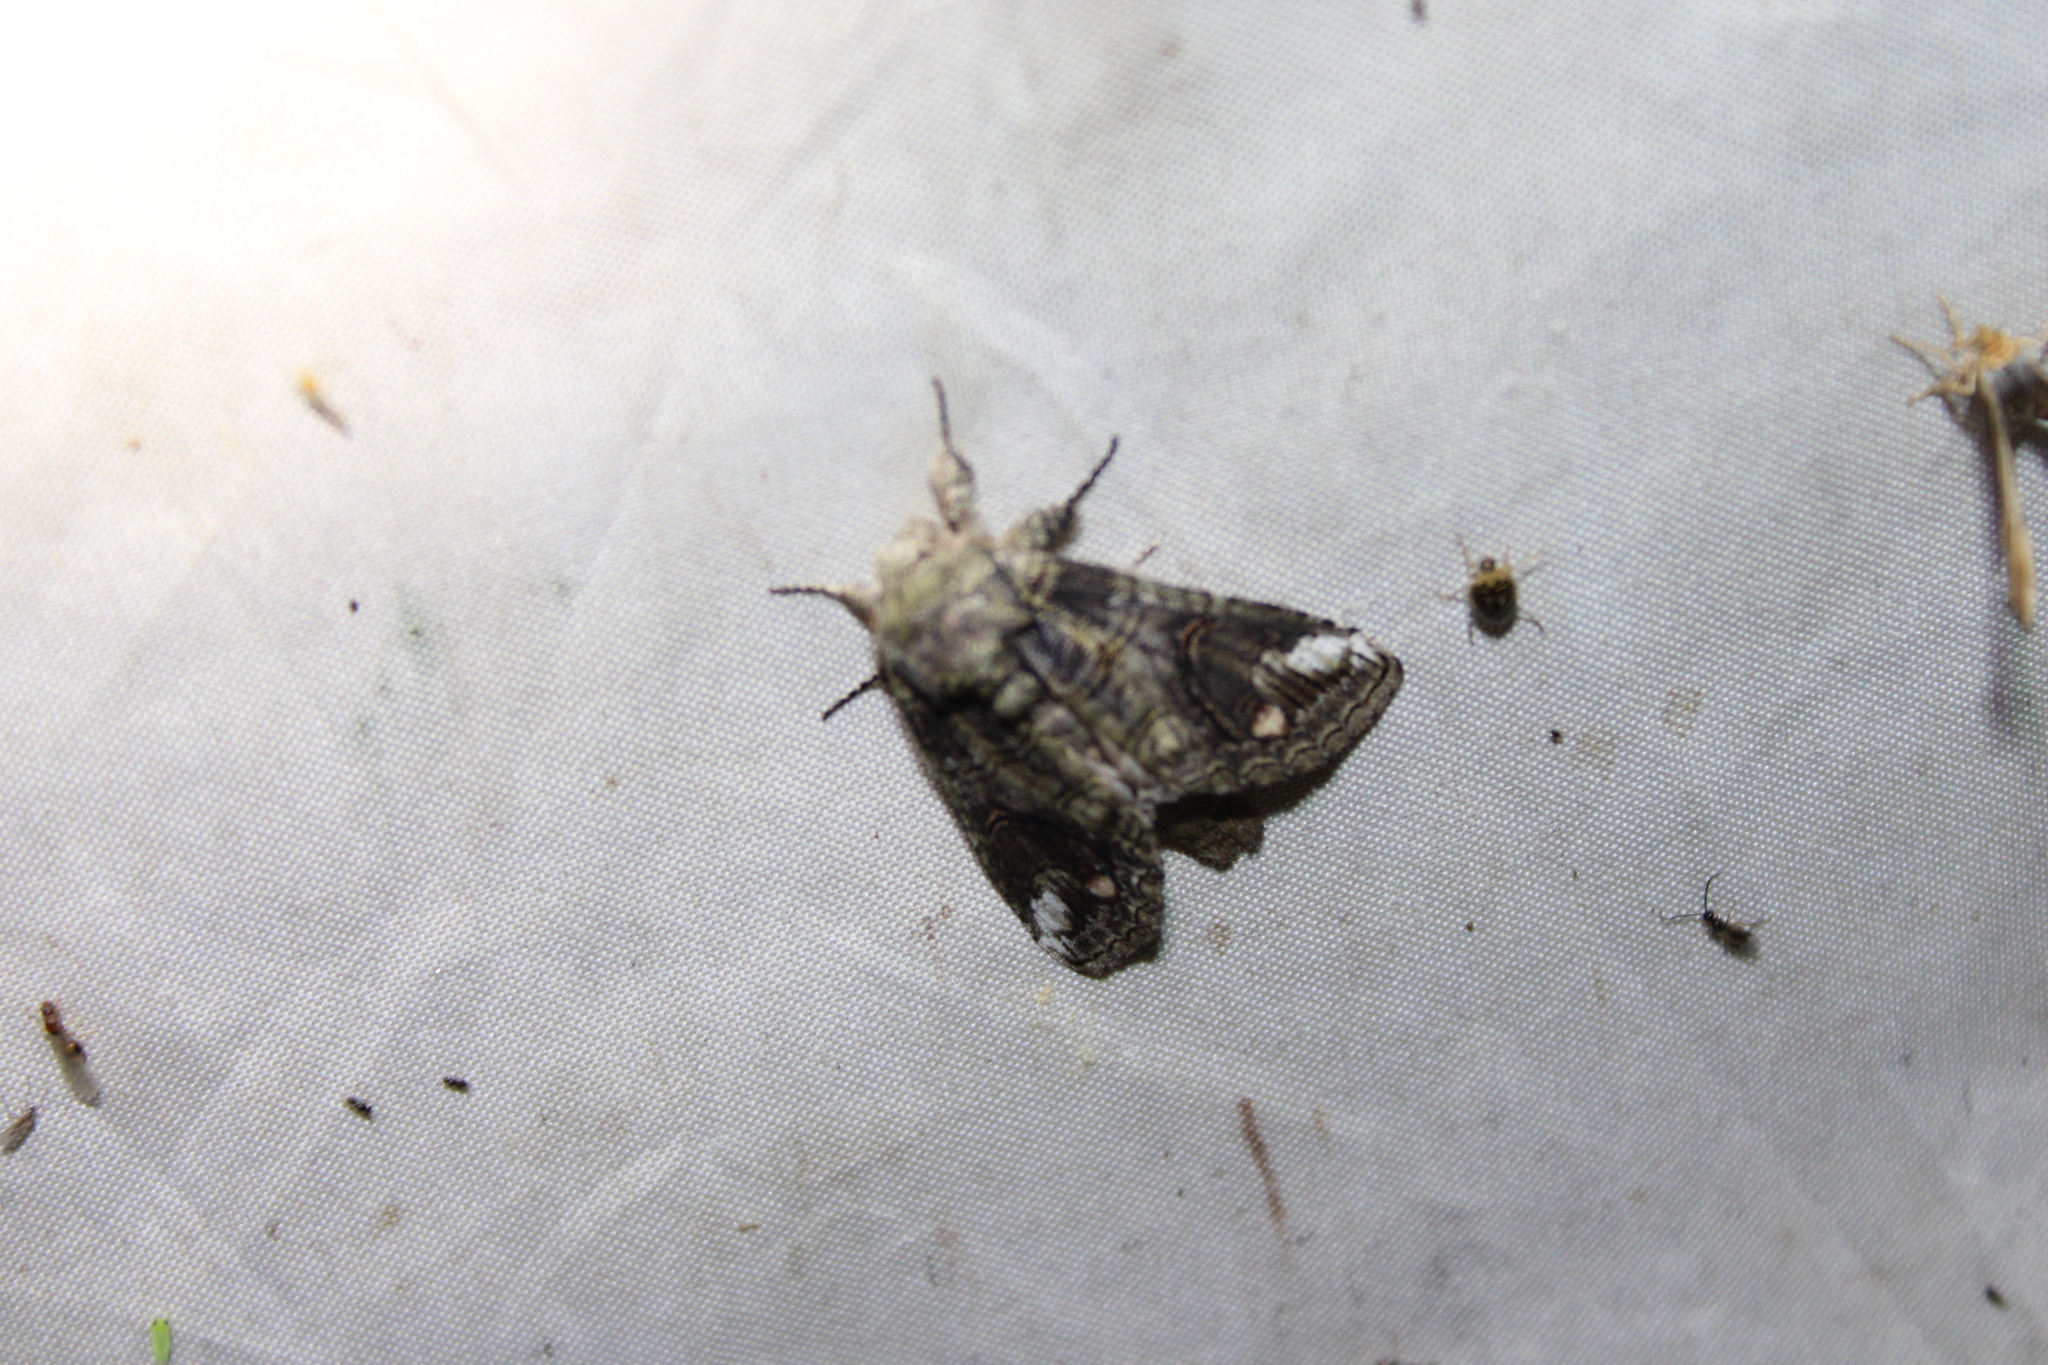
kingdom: Animalia
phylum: Arthropoda
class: Insecta
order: Lepidoptera
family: Notodontidae
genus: Heterocampa
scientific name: Heterocampa obliqua
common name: Oblique heterocampa
